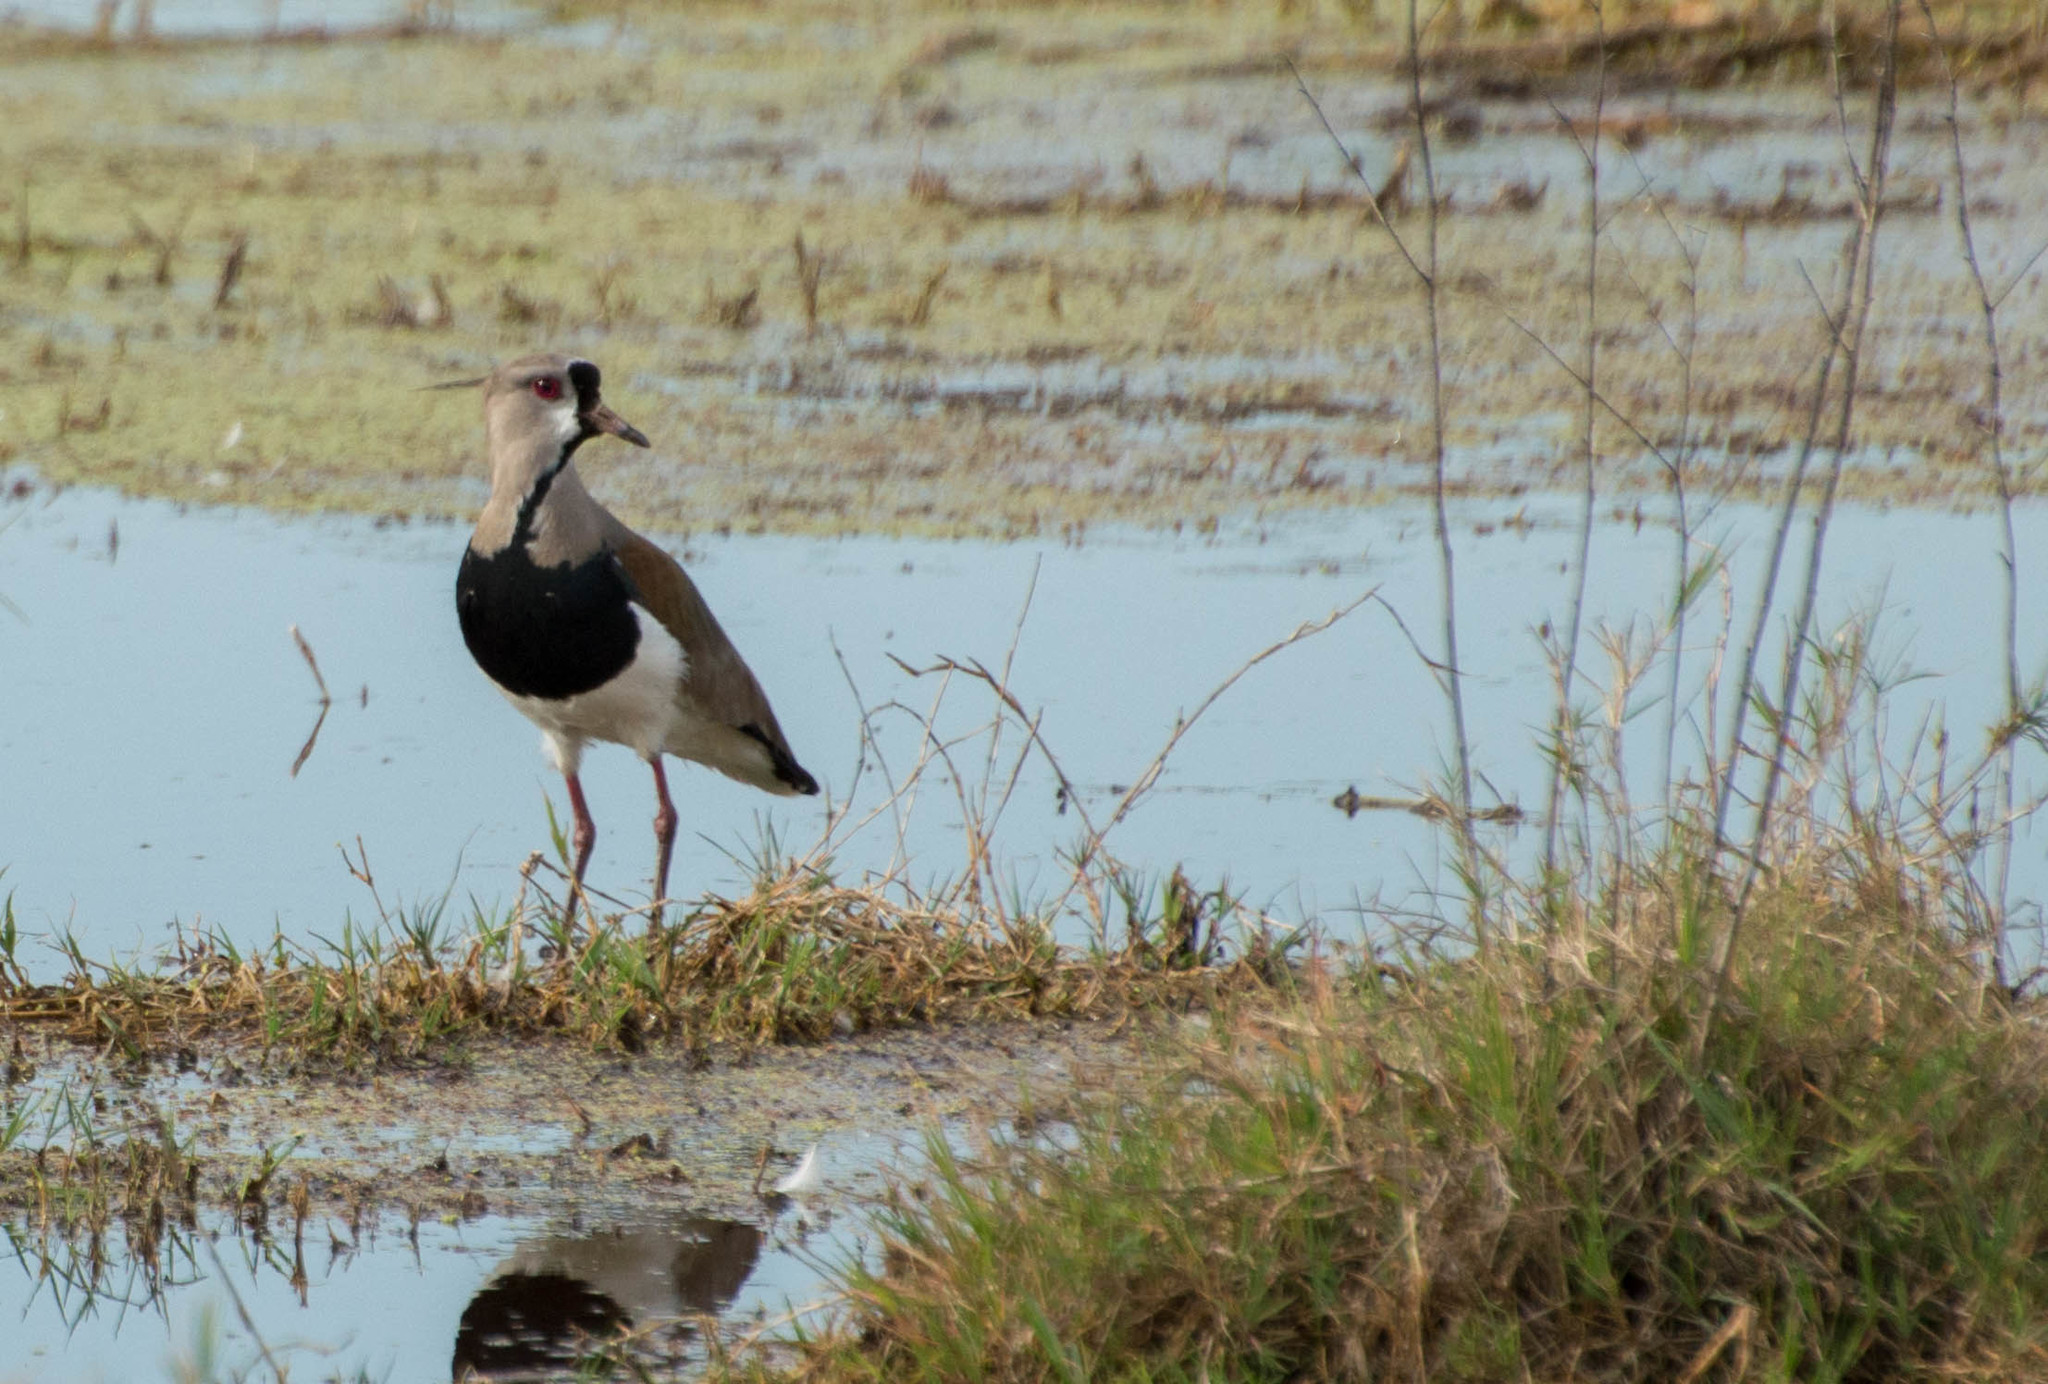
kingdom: Animalia
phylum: Chordata
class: Aves
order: Charadriiformes
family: Charadriidae
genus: Vanellus
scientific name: Vanellus chilensis
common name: Southern lapwing
